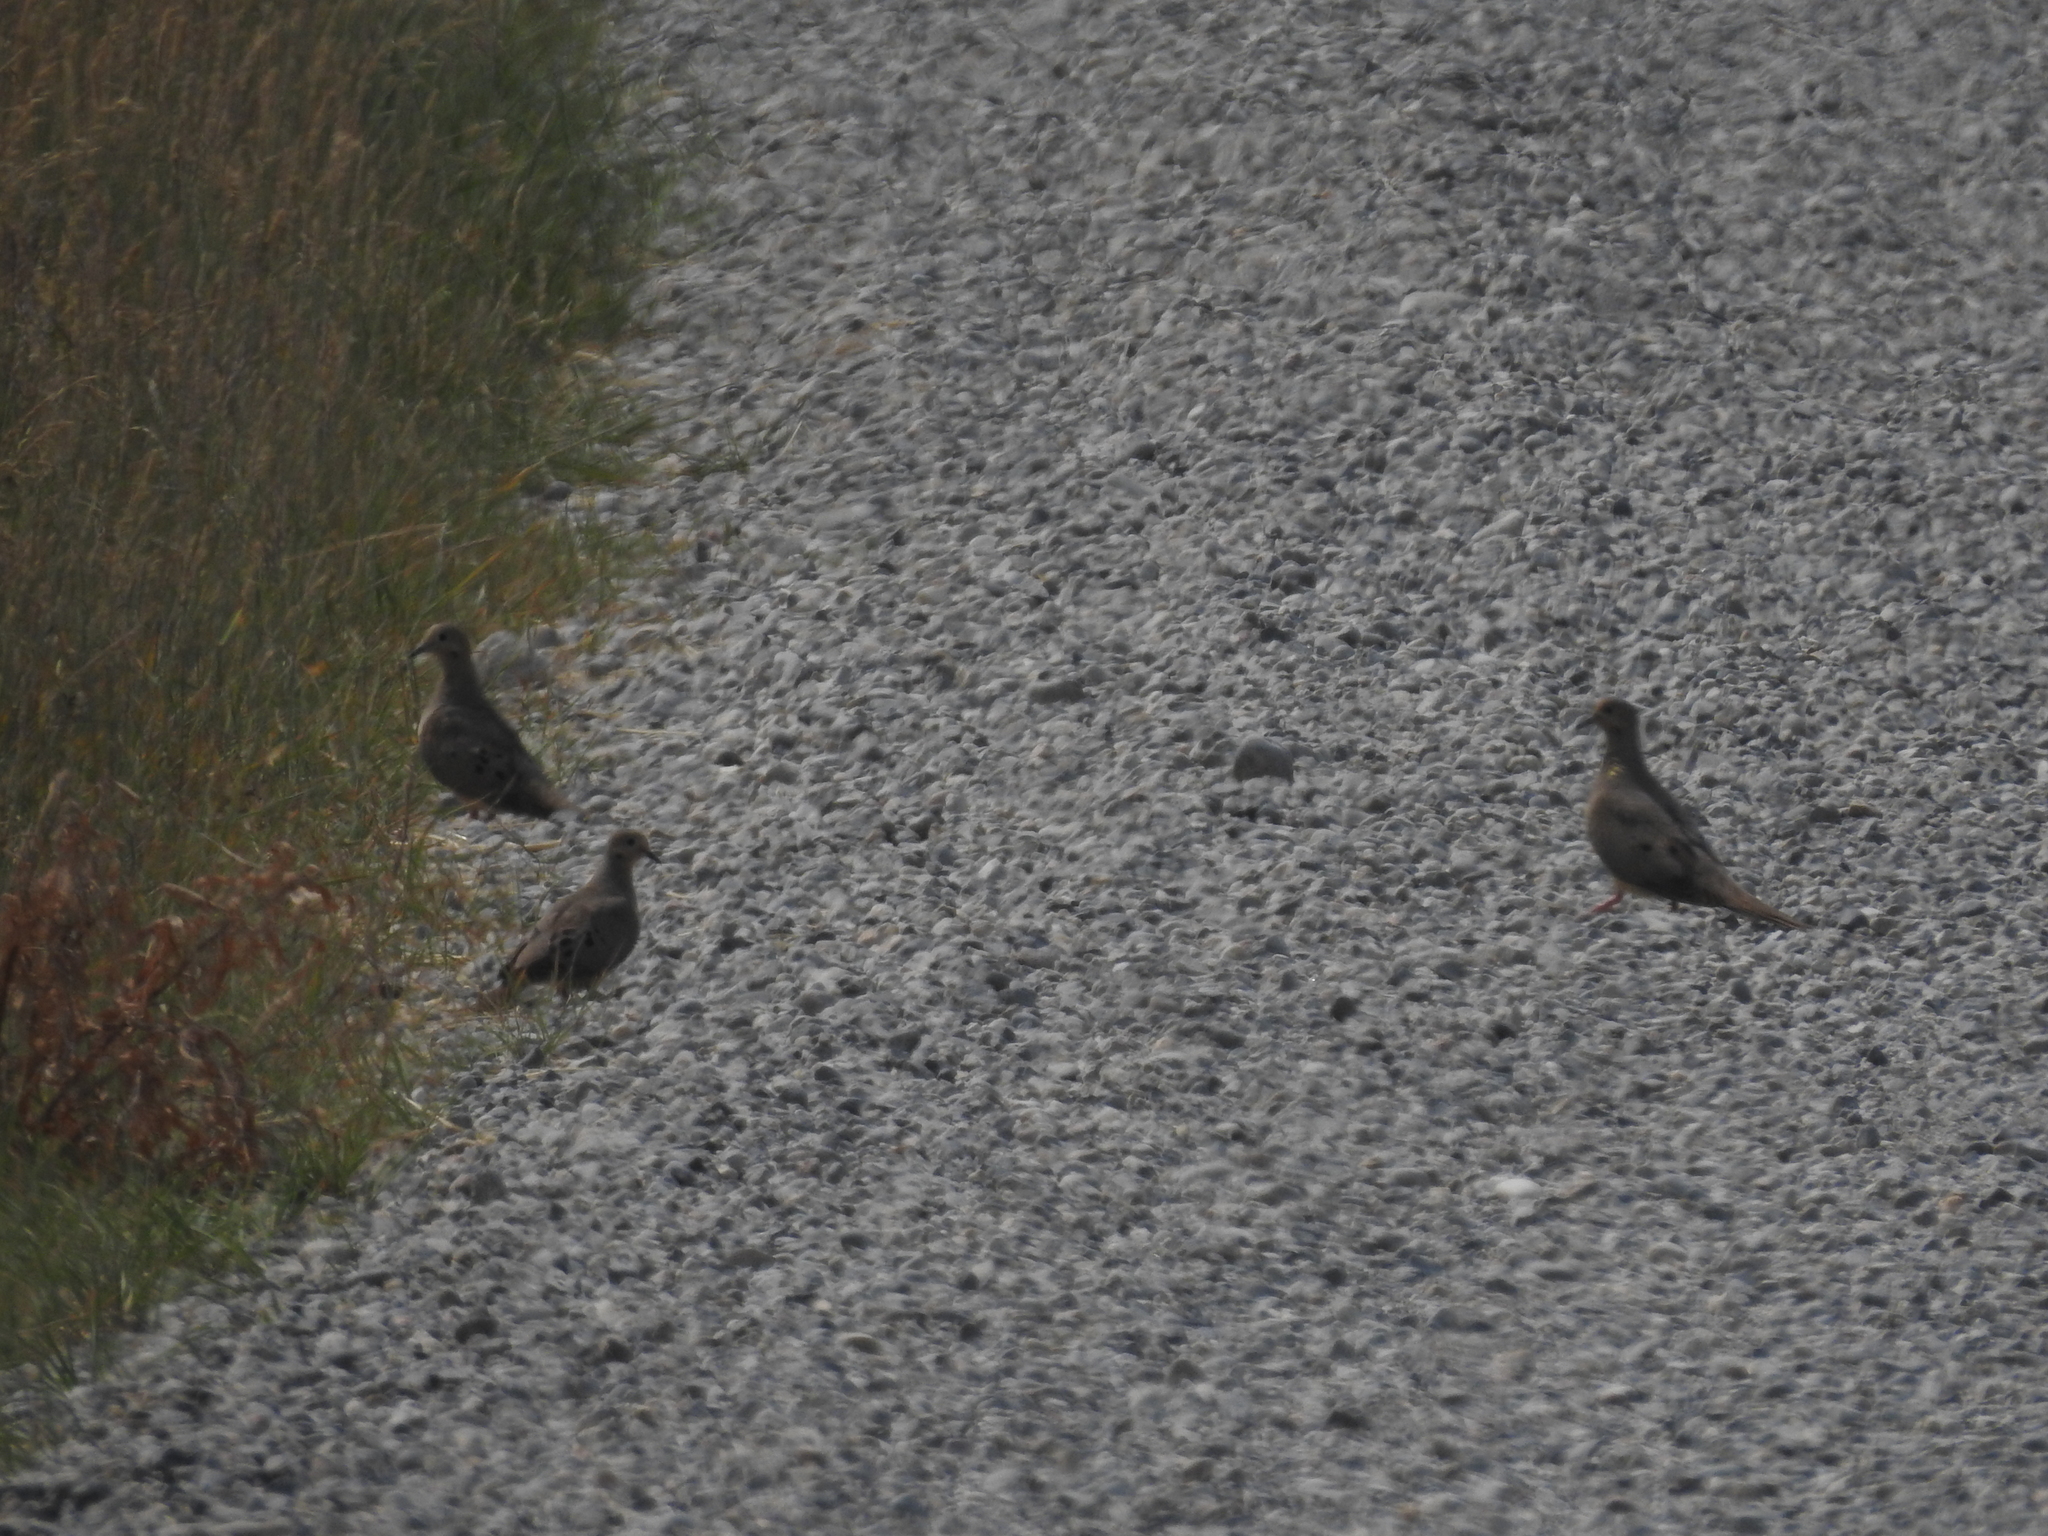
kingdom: Animalia
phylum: Chordata
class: Aves
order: Columbiformes
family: Columbidae
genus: Zenaida
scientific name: Zenaida macroura
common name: Mourning dove
